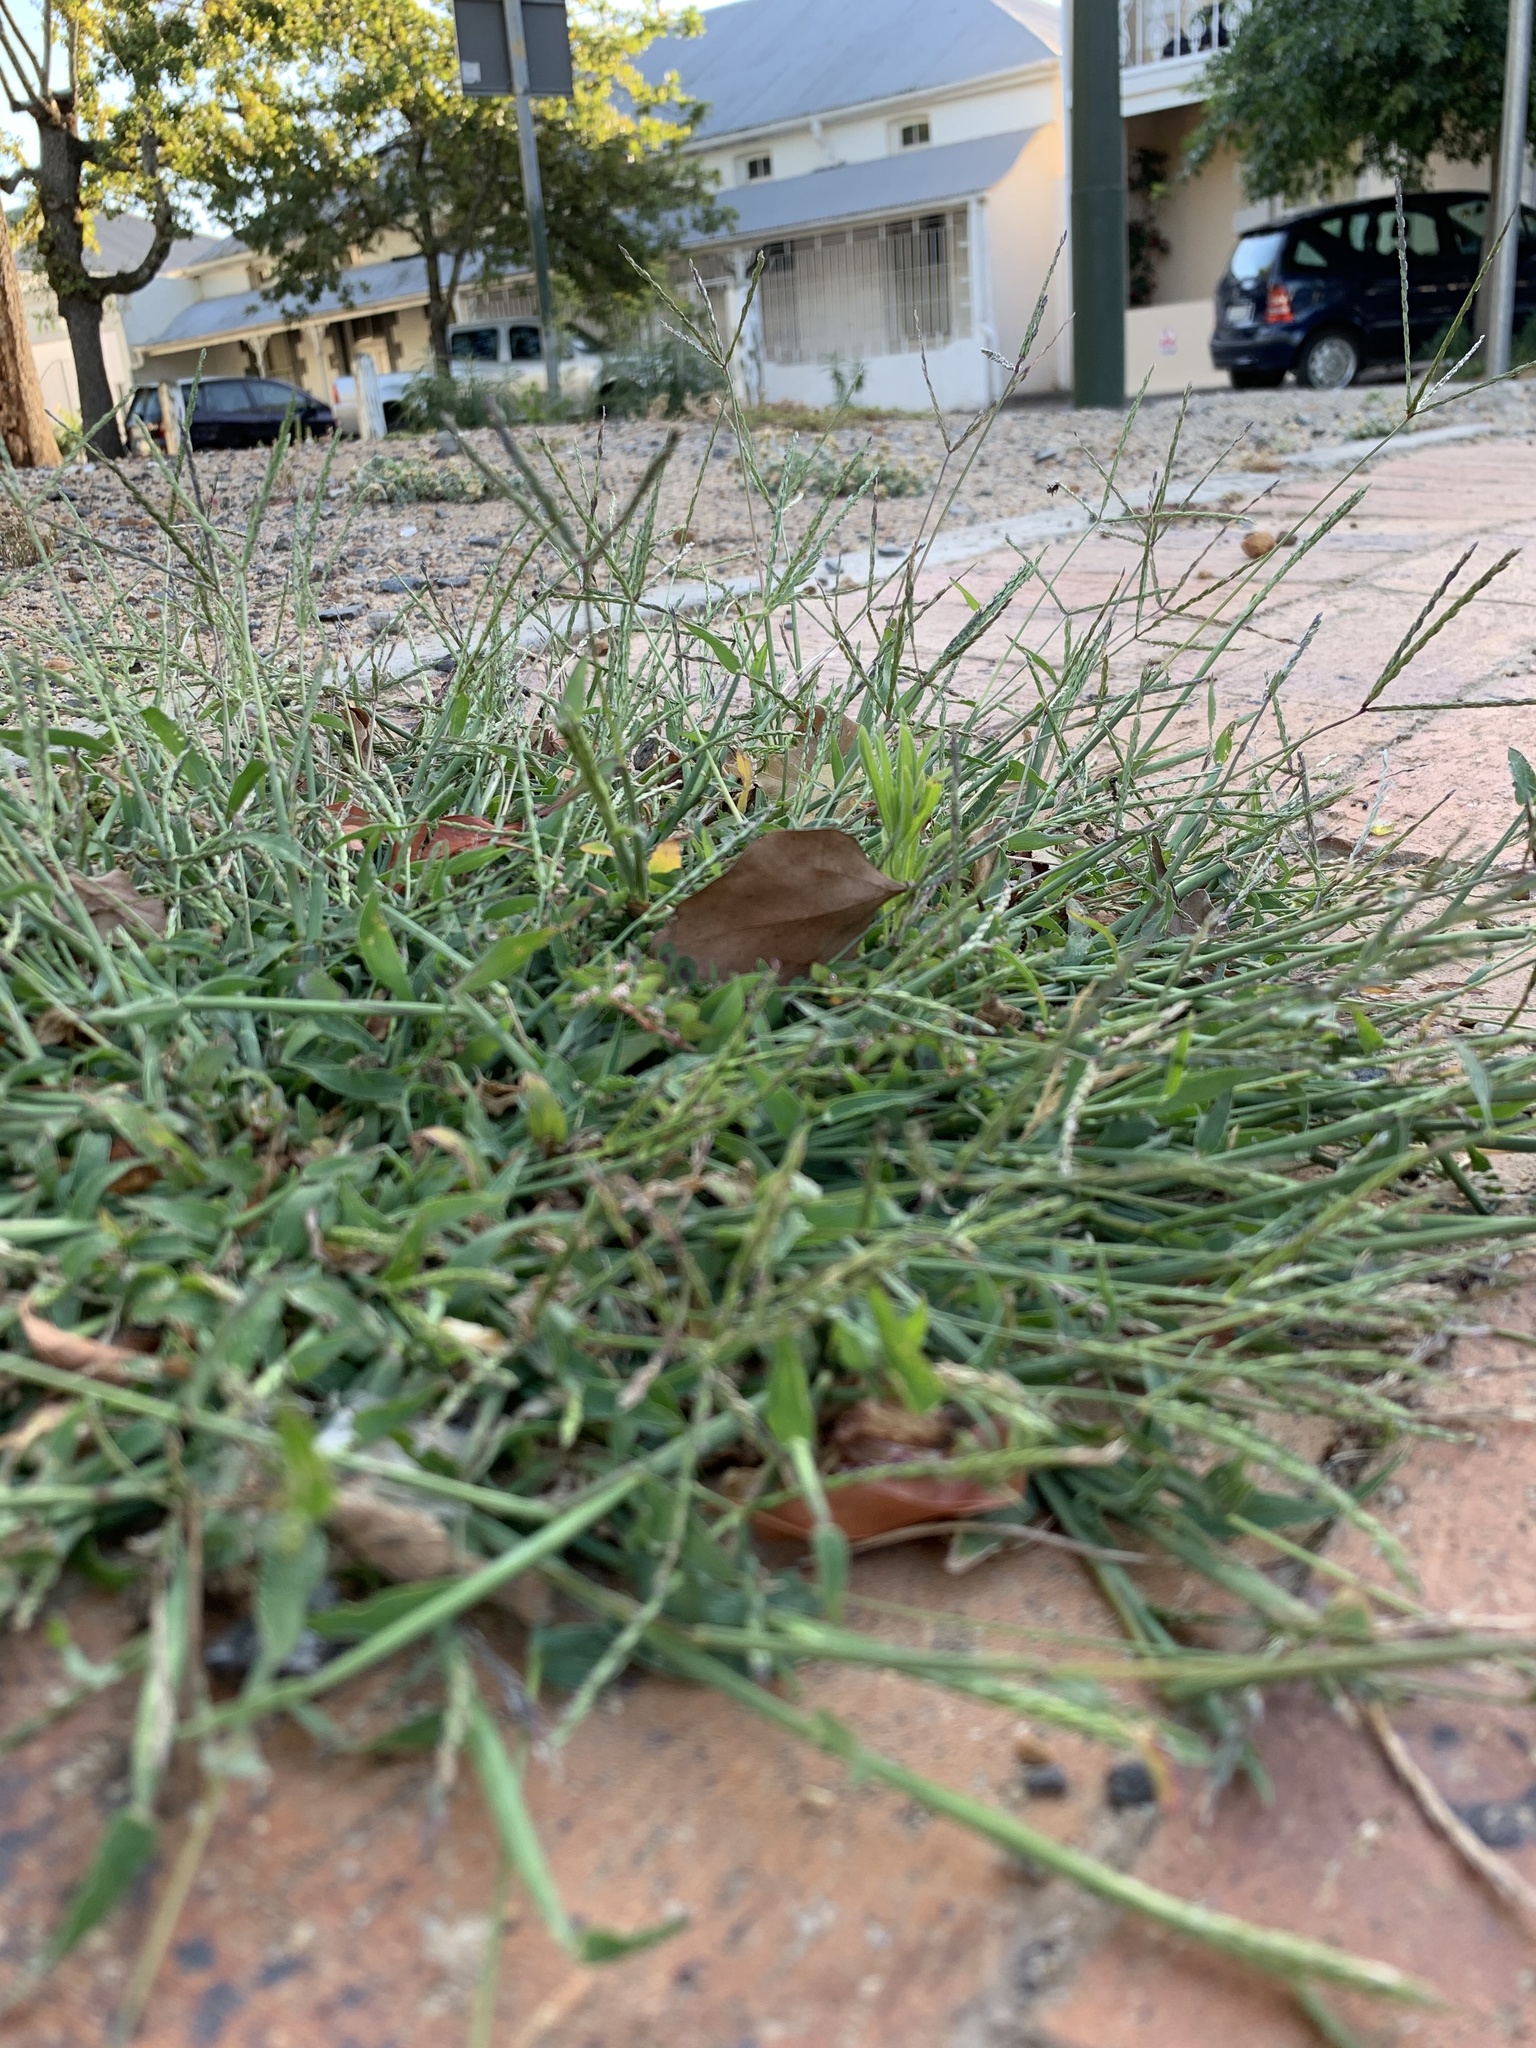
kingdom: Plantae
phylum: Tracheophyta
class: Liliopsida
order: Poales
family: Poaceae
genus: Cynodon
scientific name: Cynodon dactylon
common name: Bermuda grass
